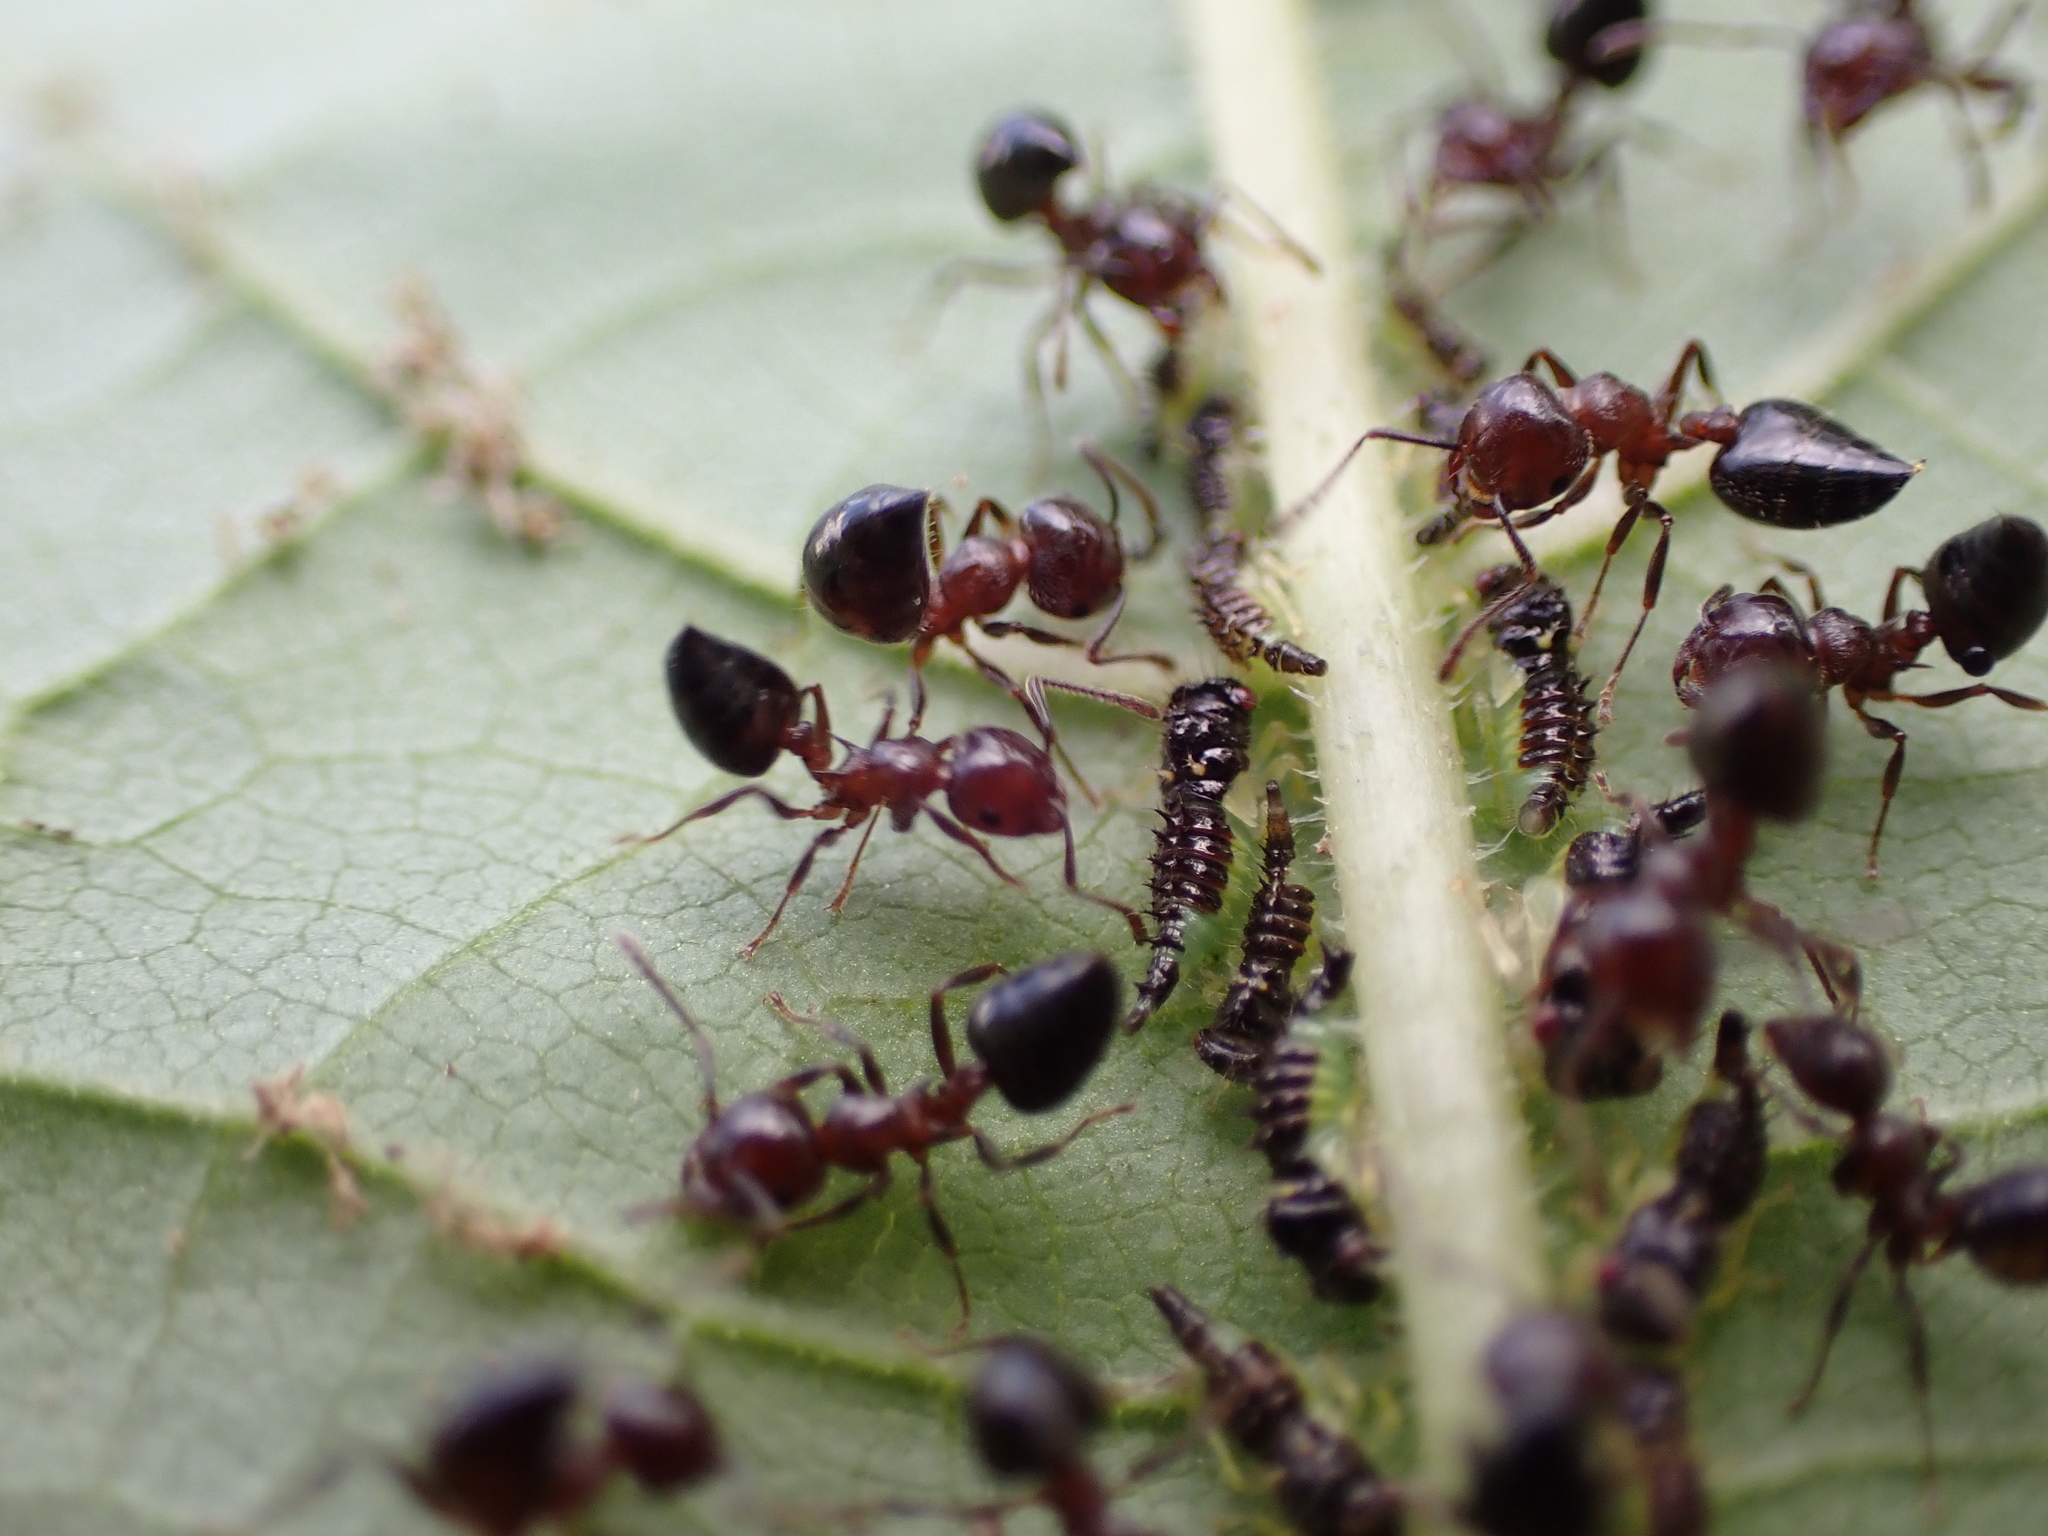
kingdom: Animalia
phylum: Arthropoda
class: Insecta
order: Hymenoptera
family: Formicidae
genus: Crematogaster
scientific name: Crematogaster pilosa
